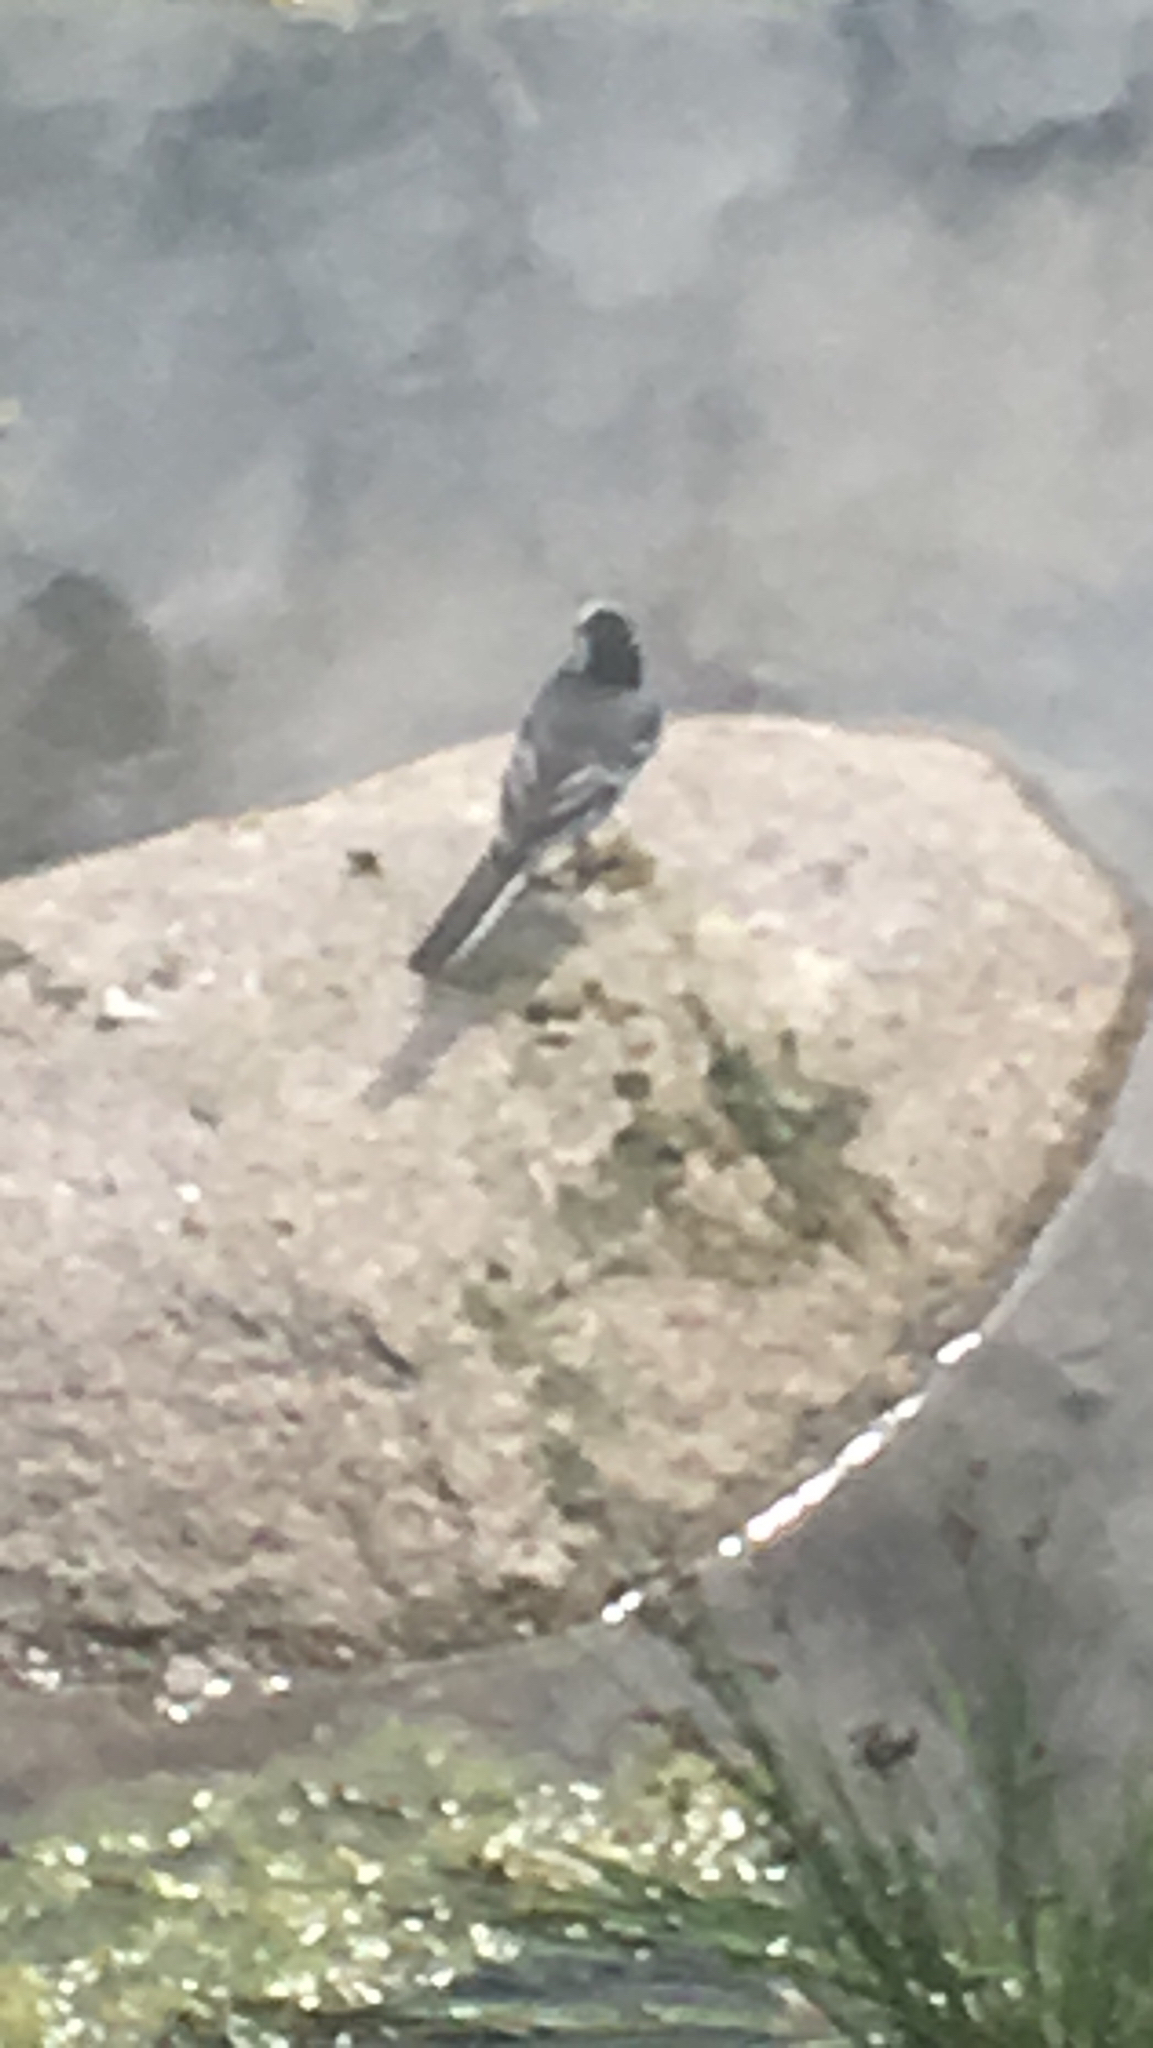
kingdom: Animalia
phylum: Chordata
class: Aves
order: Passeriformes
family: Motacillidae
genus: Motacilla
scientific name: Motacilla alba
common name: White wagtail
